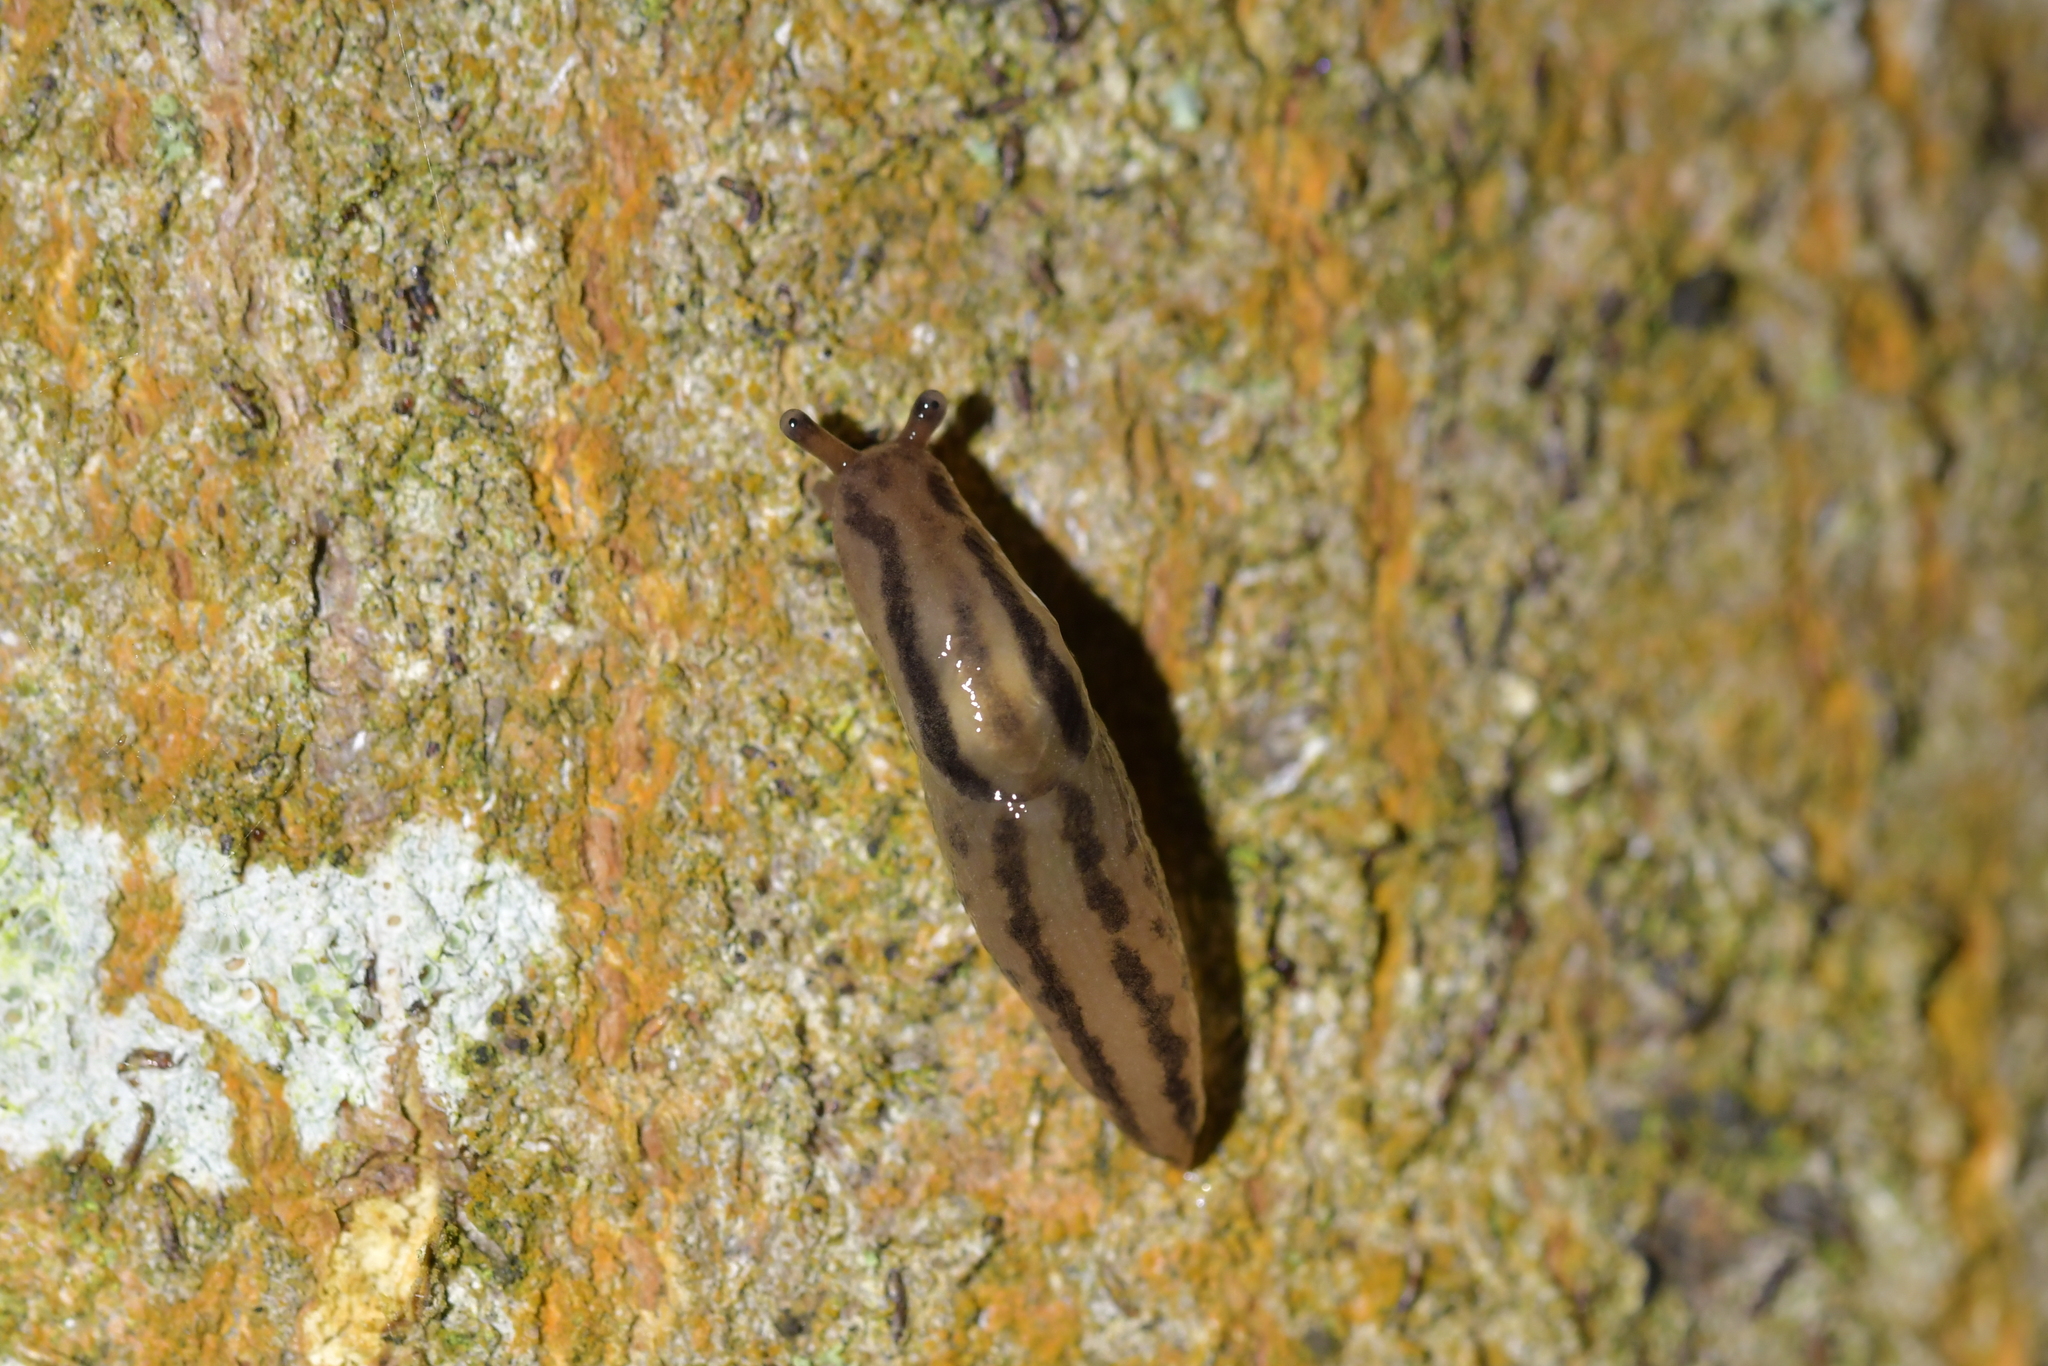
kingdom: Animalia
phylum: Mollusca
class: Gastropoda
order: Stylommatophora
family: Limacidae
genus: Ambigolimax
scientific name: Ambigolimax
